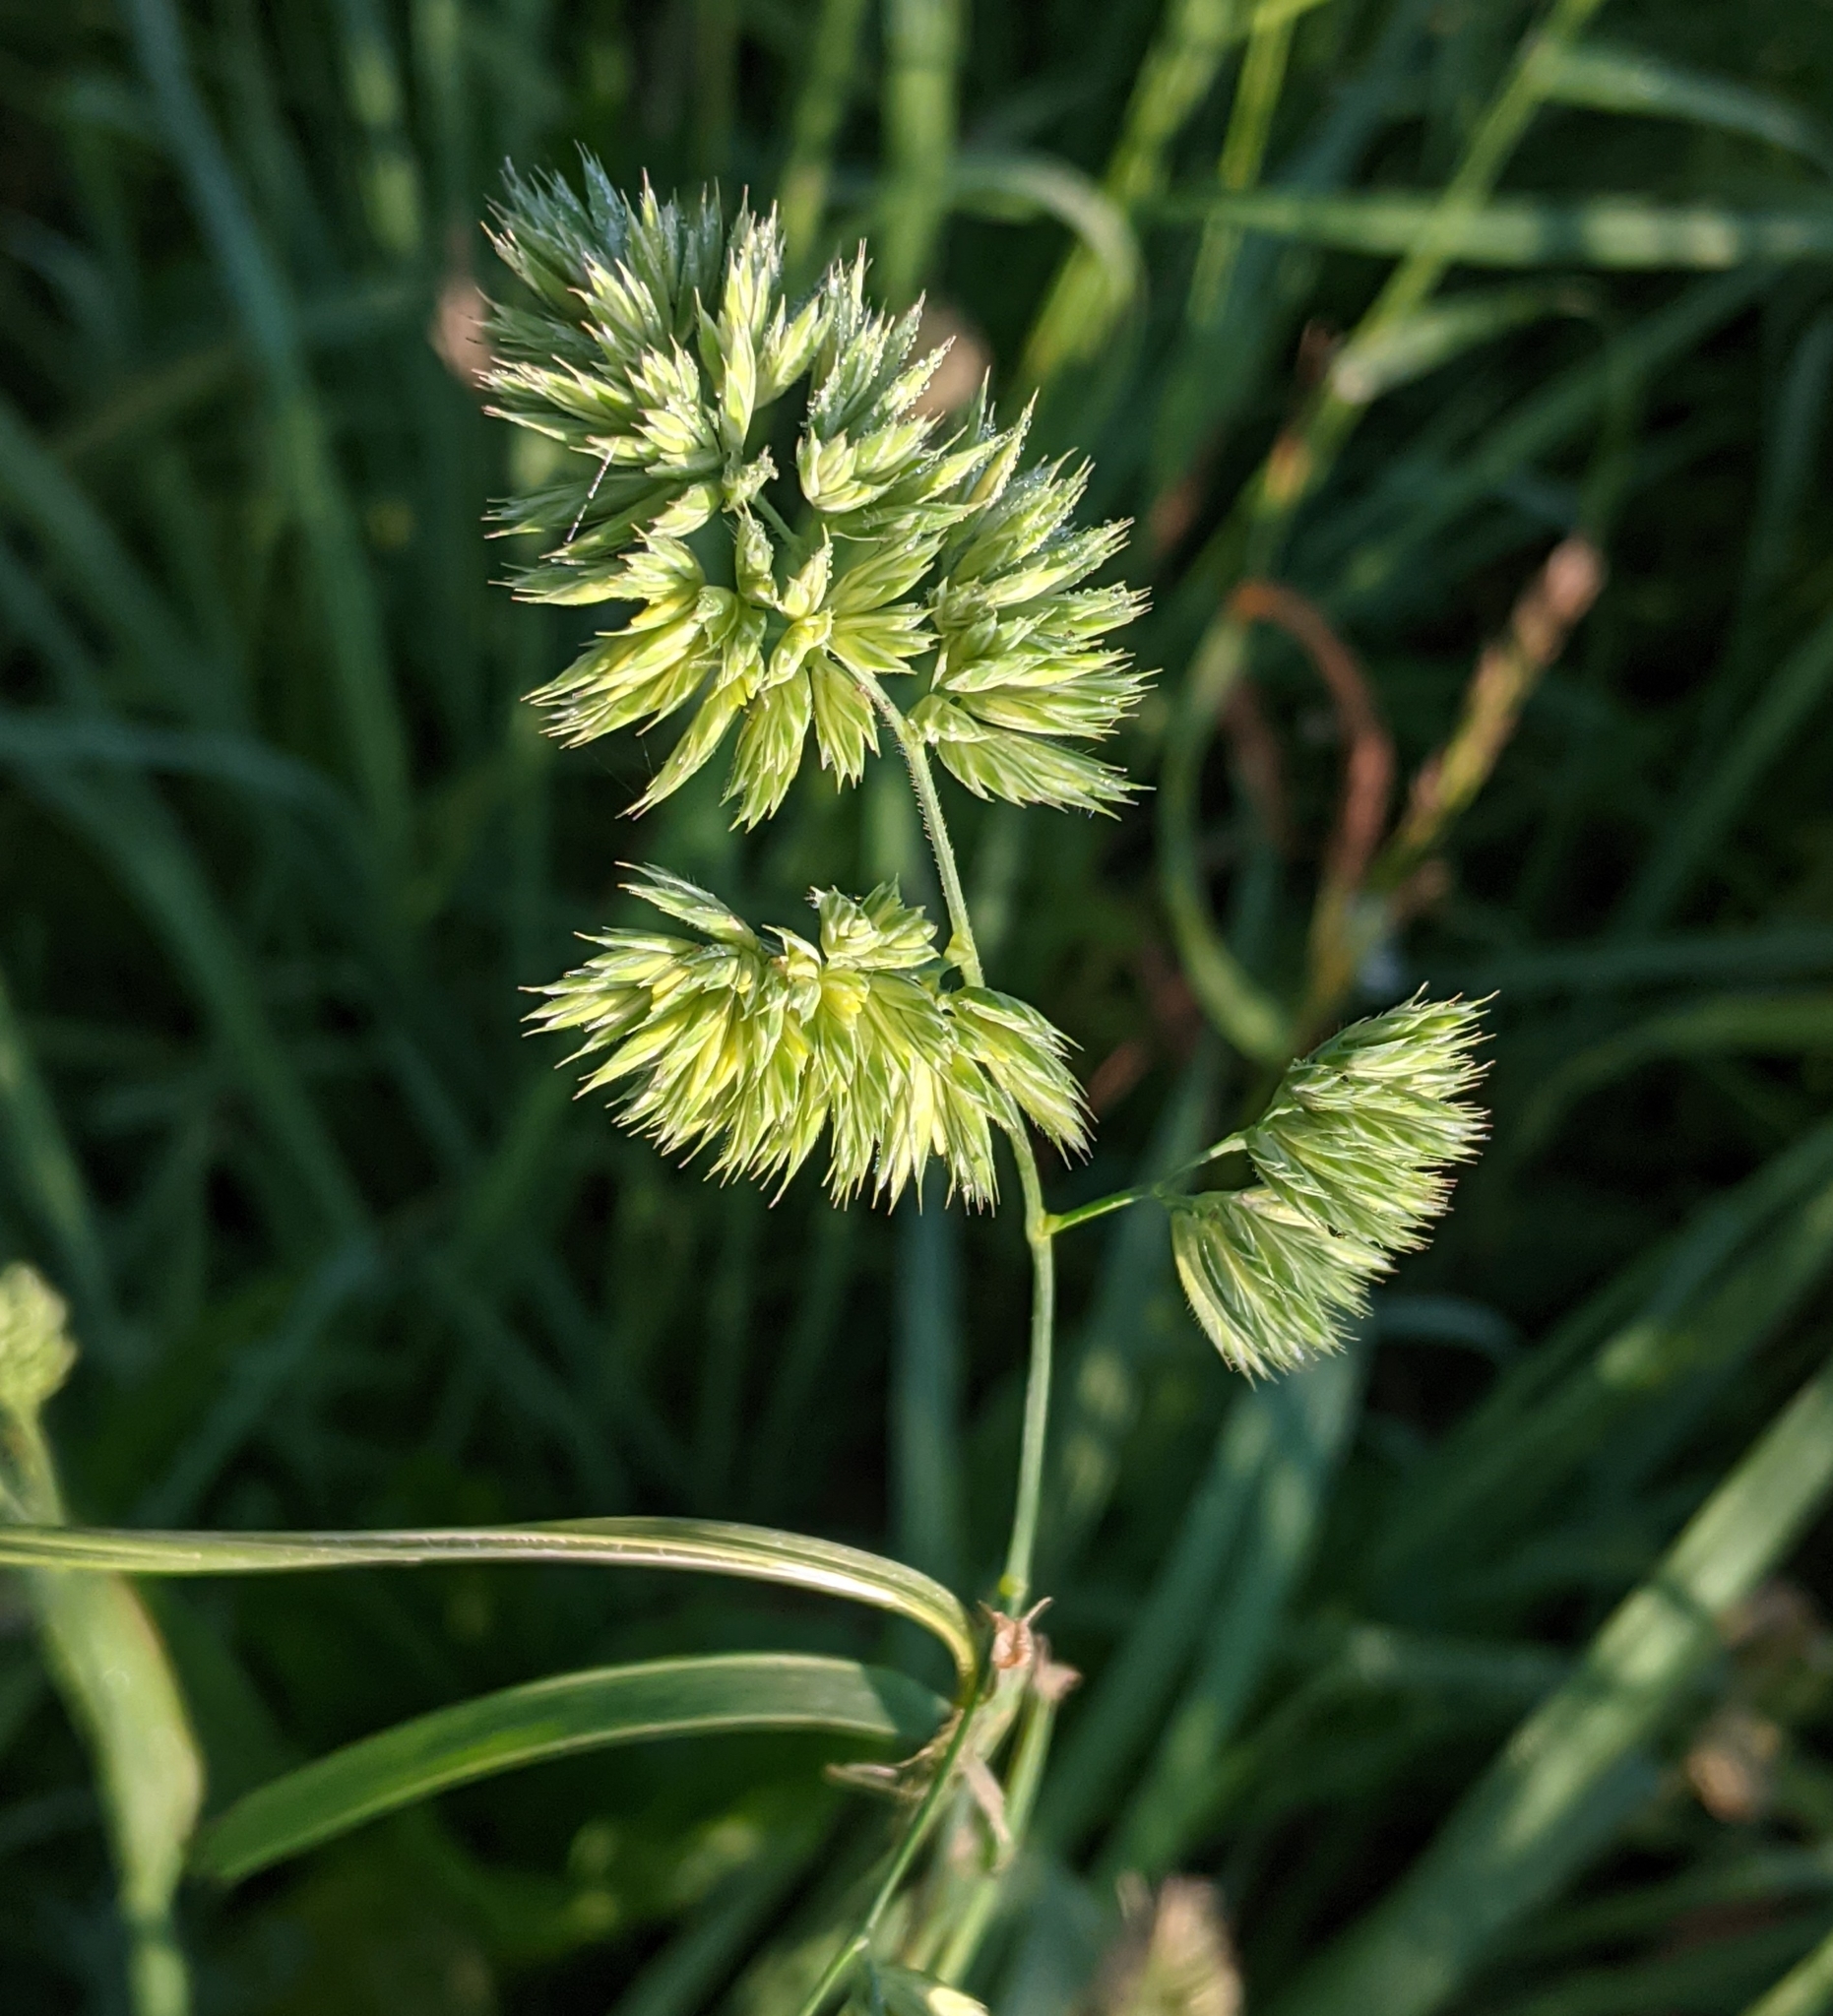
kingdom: Plantae
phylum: Tracheophyta
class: Liliopsida
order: Poales
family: Poaceae
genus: Dactylis
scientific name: Dactylis glomerata
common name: Orchardgrass
